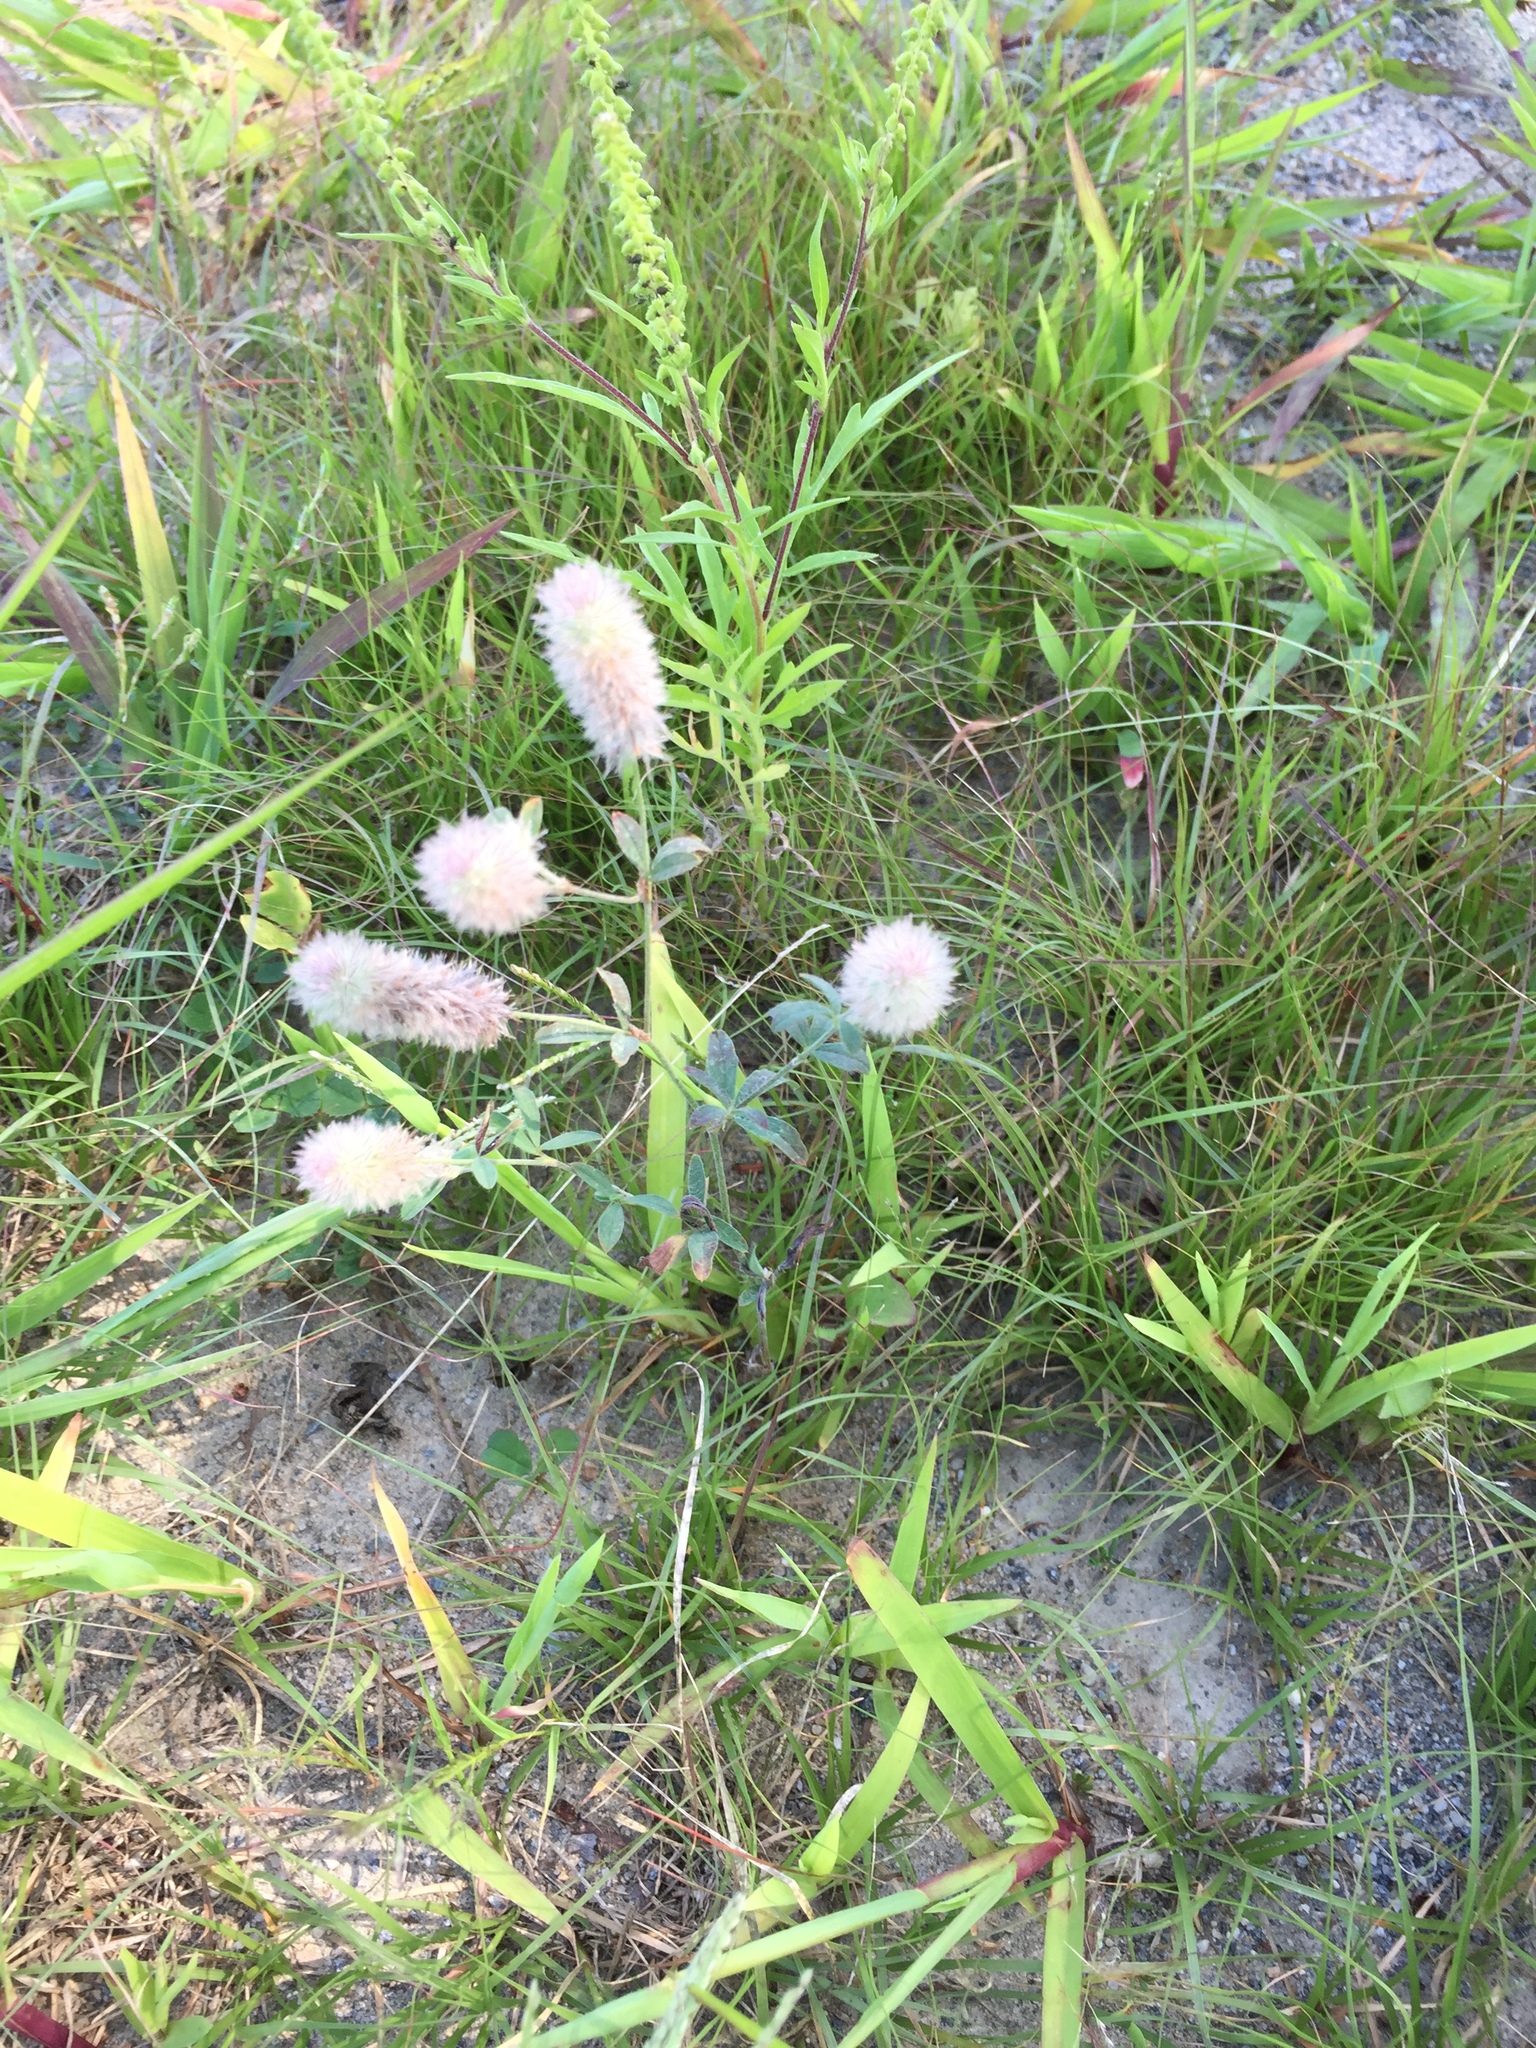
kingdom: Plantae
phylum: Tracheophyta
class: Magnoliopsida
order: Fabales
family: Fabaceae
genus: Trifolium
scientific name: Trifolium arvense
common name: Hare's-foot clover
